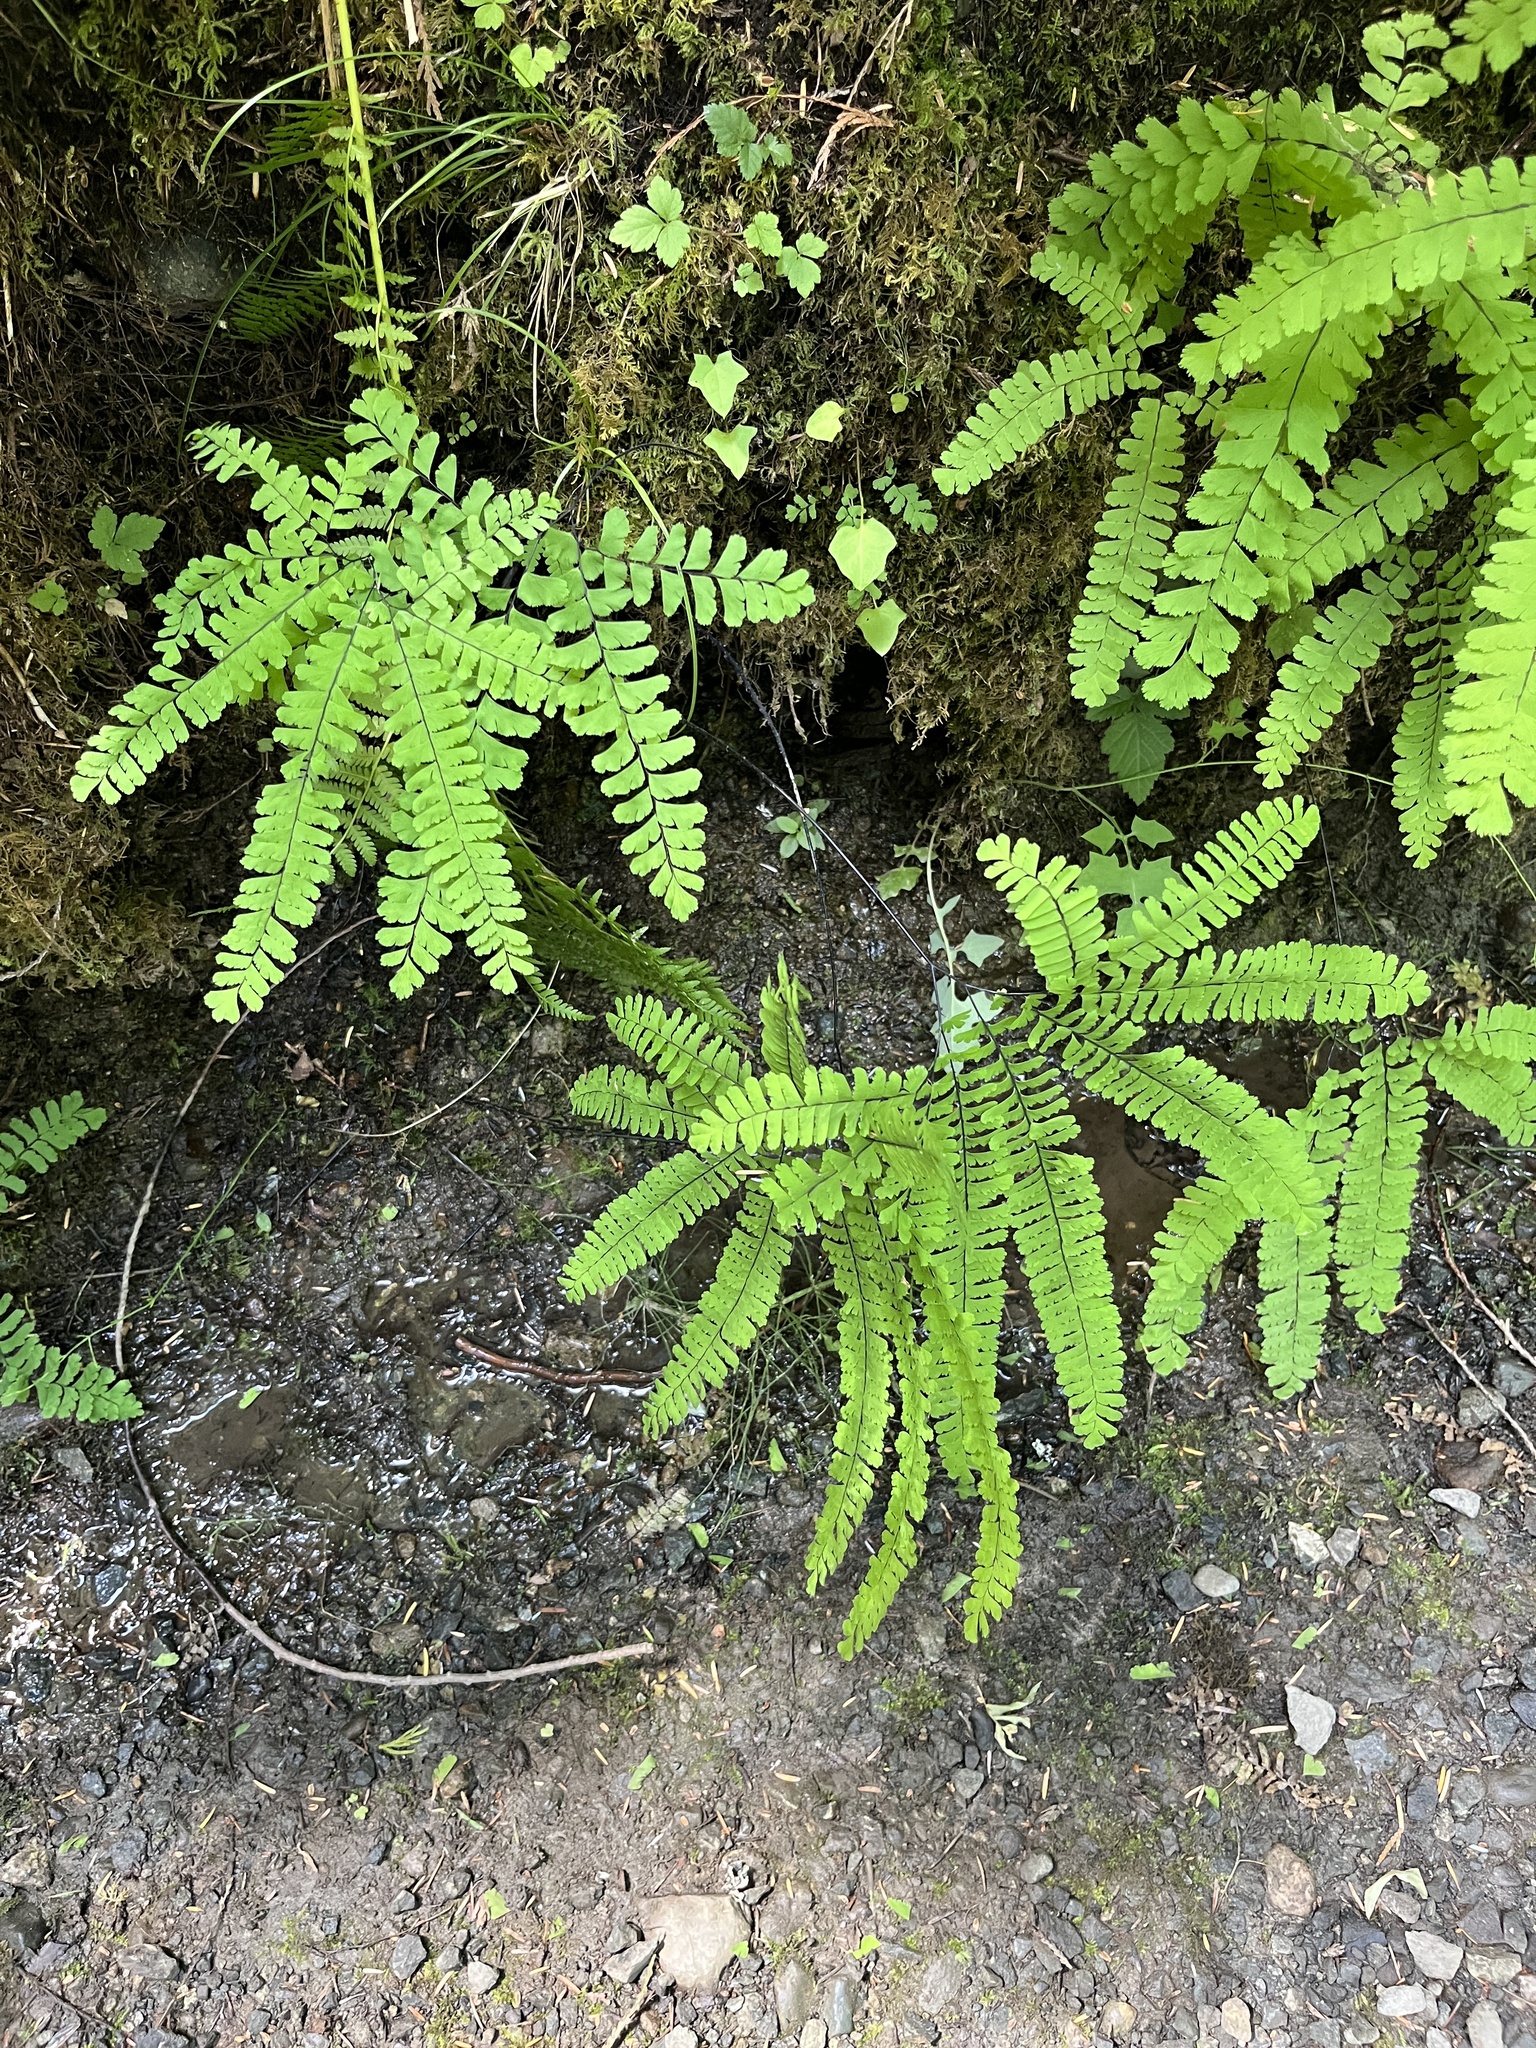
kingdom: Plantae
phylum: Tracheophyta
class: Polypodiopsida
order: Polypodiales
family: Pteridaceae
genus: Adiantum
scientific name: Adiantum aleuticum
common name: Aleutian maidenhair fern
